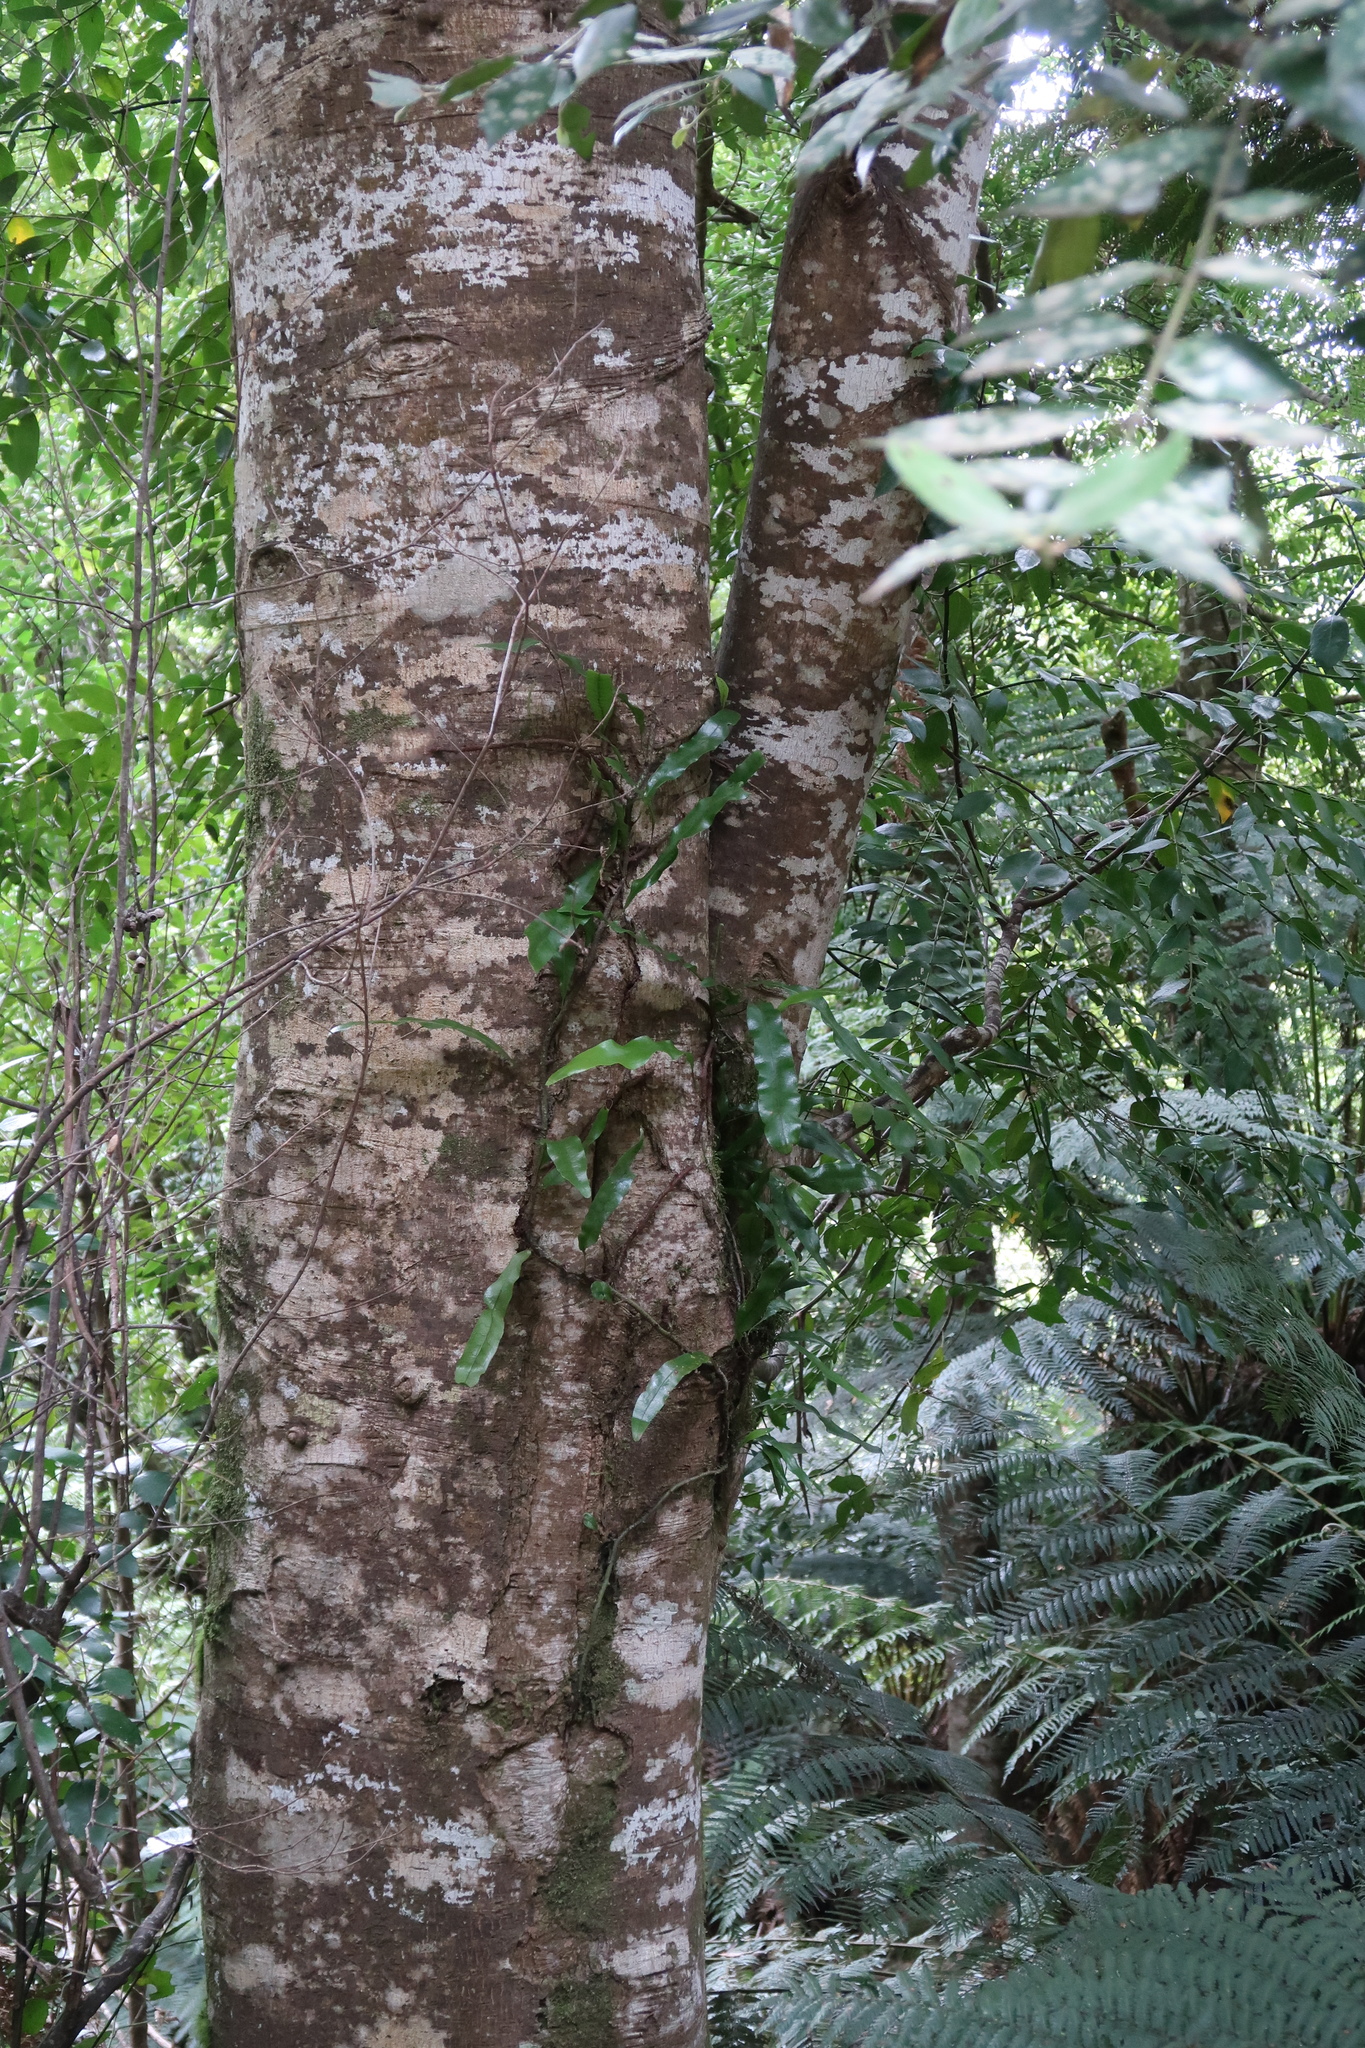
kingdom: Plantae
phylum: Tracheophyta
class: Polypodiopsida
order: Polypodiales
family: Polypodiaceae
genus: Lecanopteris
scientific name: Lecanopteris pustulata
